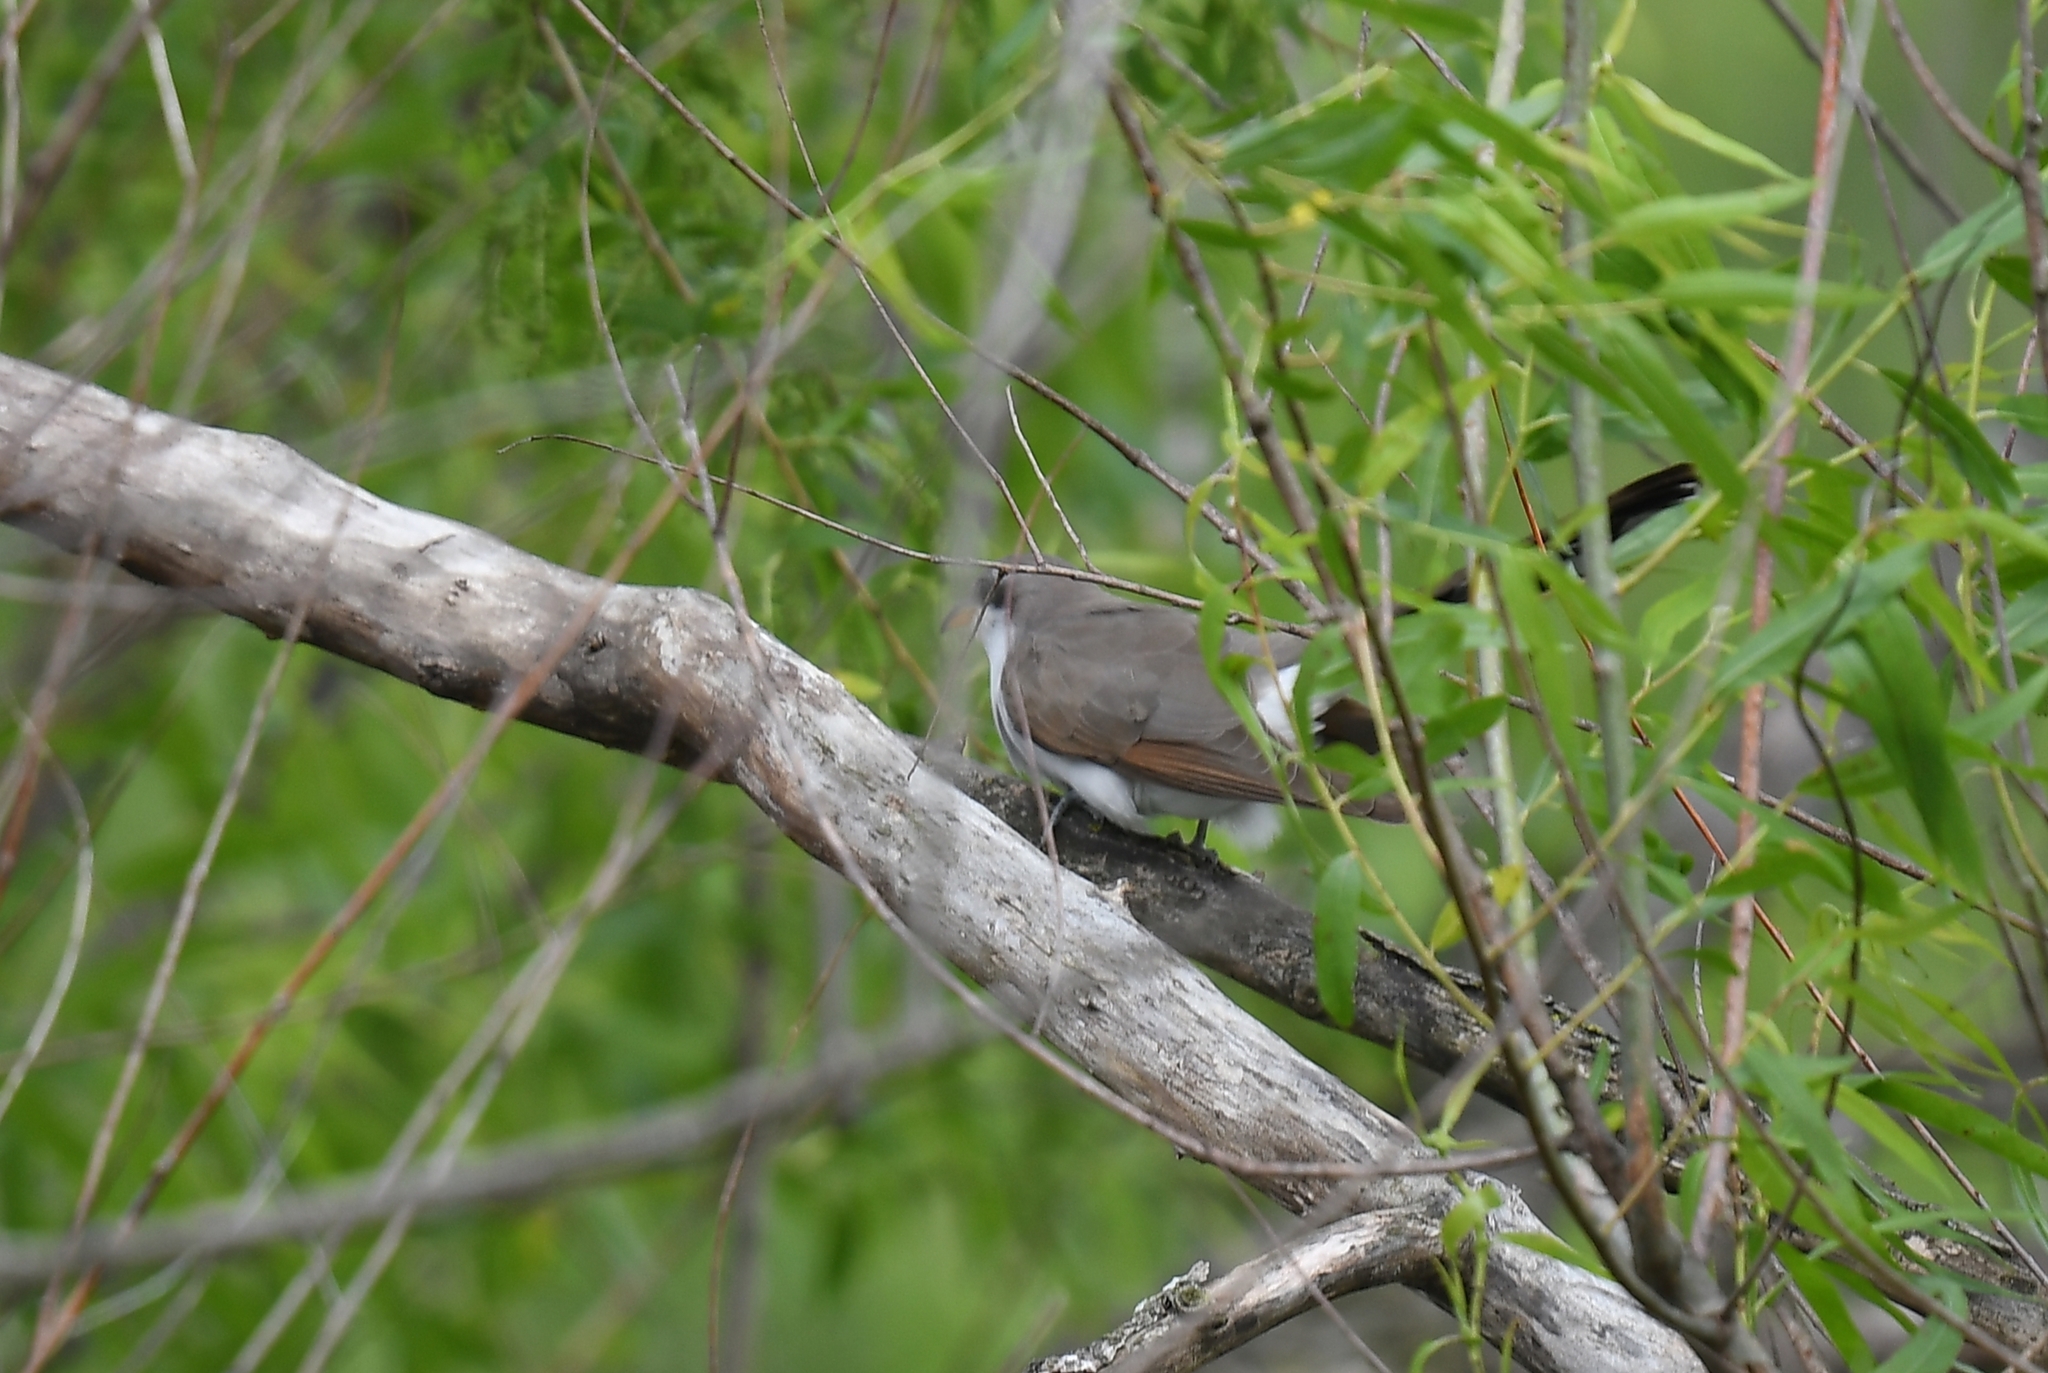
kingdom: Animalia
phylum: Chordata
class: Aves
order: Cuculiformes
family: Cuculidae
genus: Coccyzus
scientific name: Coccyzus americanus
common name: Yellow-billed cuckoo
